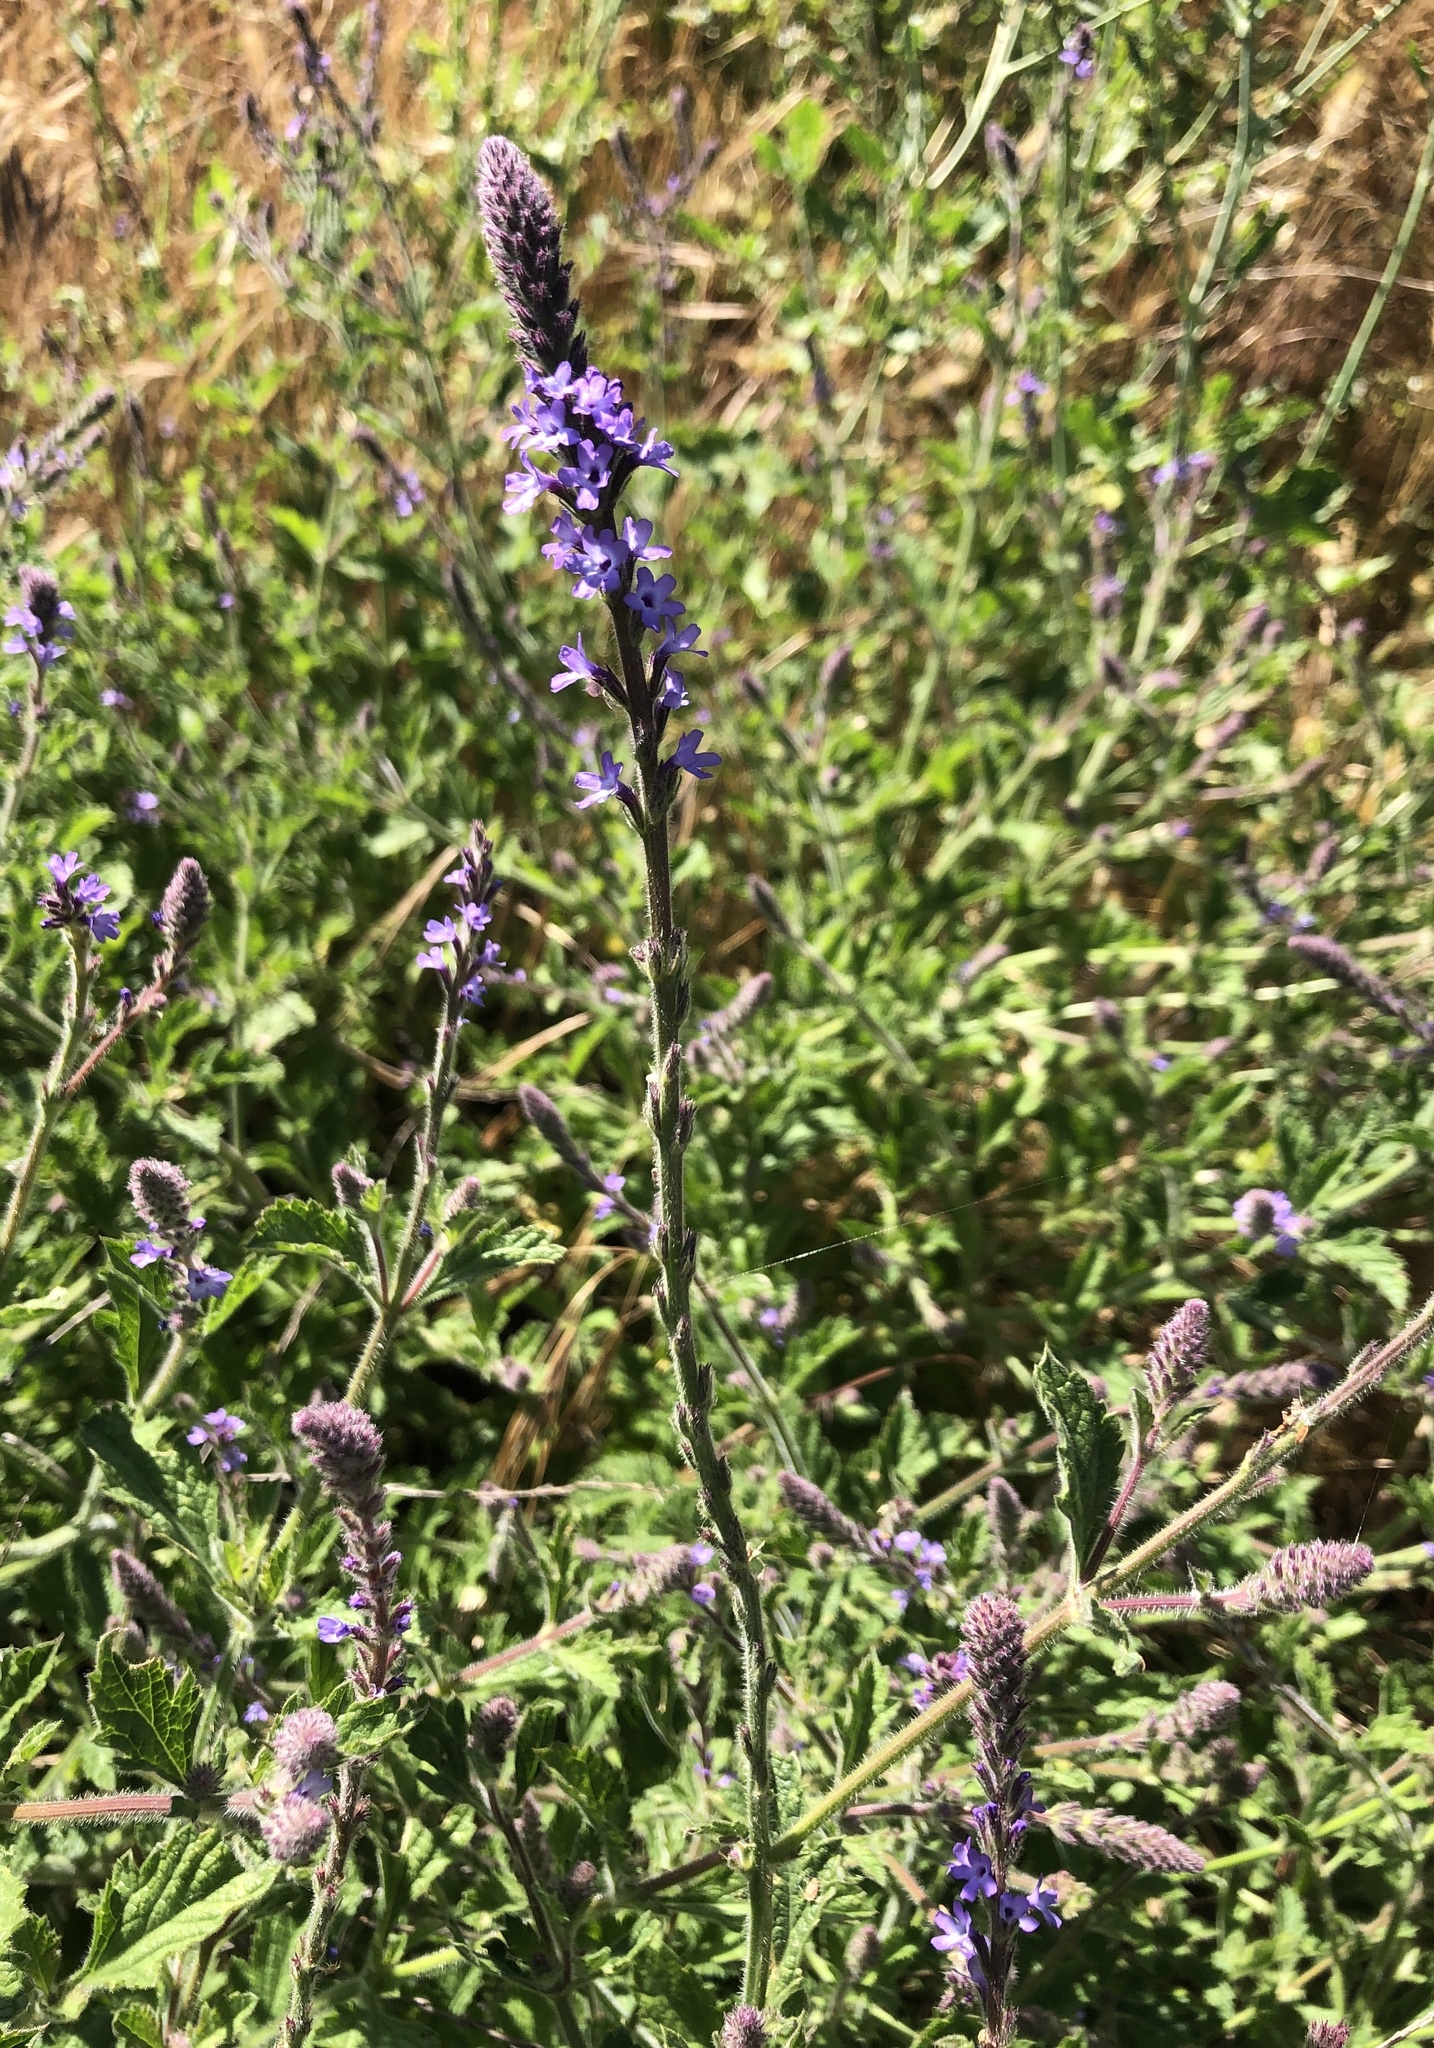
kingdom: Plantae
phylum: Tracheophyta
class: Magnoliopsida
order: Lamiales
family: Verbenaceae
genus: Verbena
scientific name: Verbena lasiostachys
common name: Vervain
